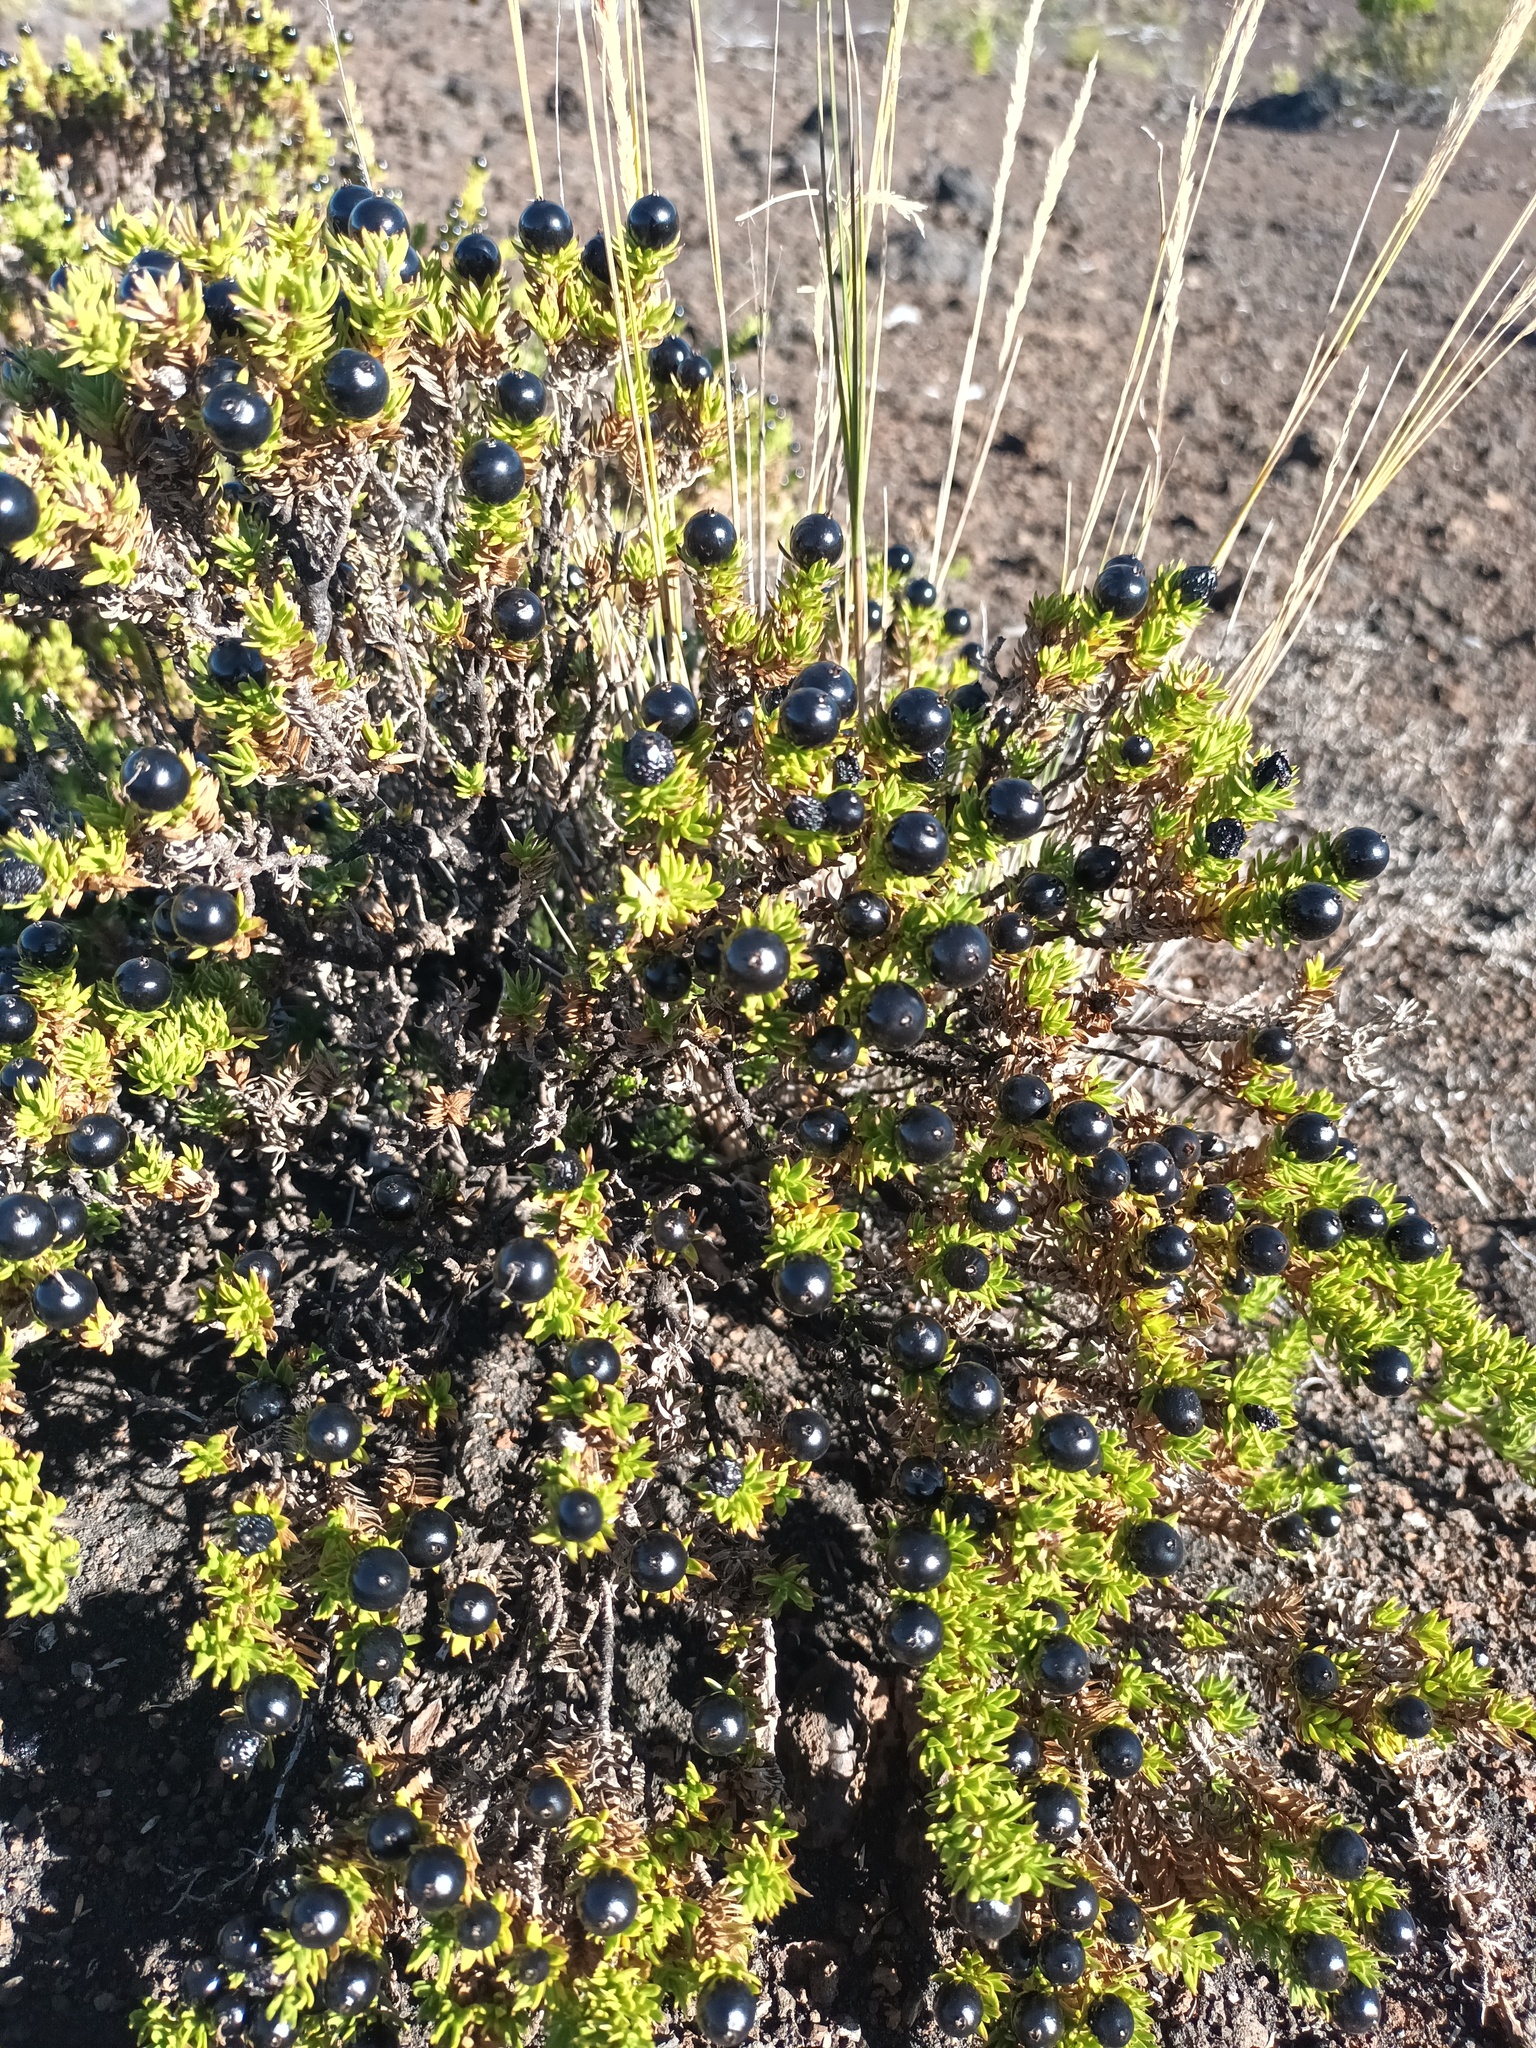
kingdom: Plantae
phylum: Tracheophyta
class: Magnoliopsida
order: Gentianales
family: Rubiaceae
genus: Coprosma
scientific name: Coprosma ernodeoides
